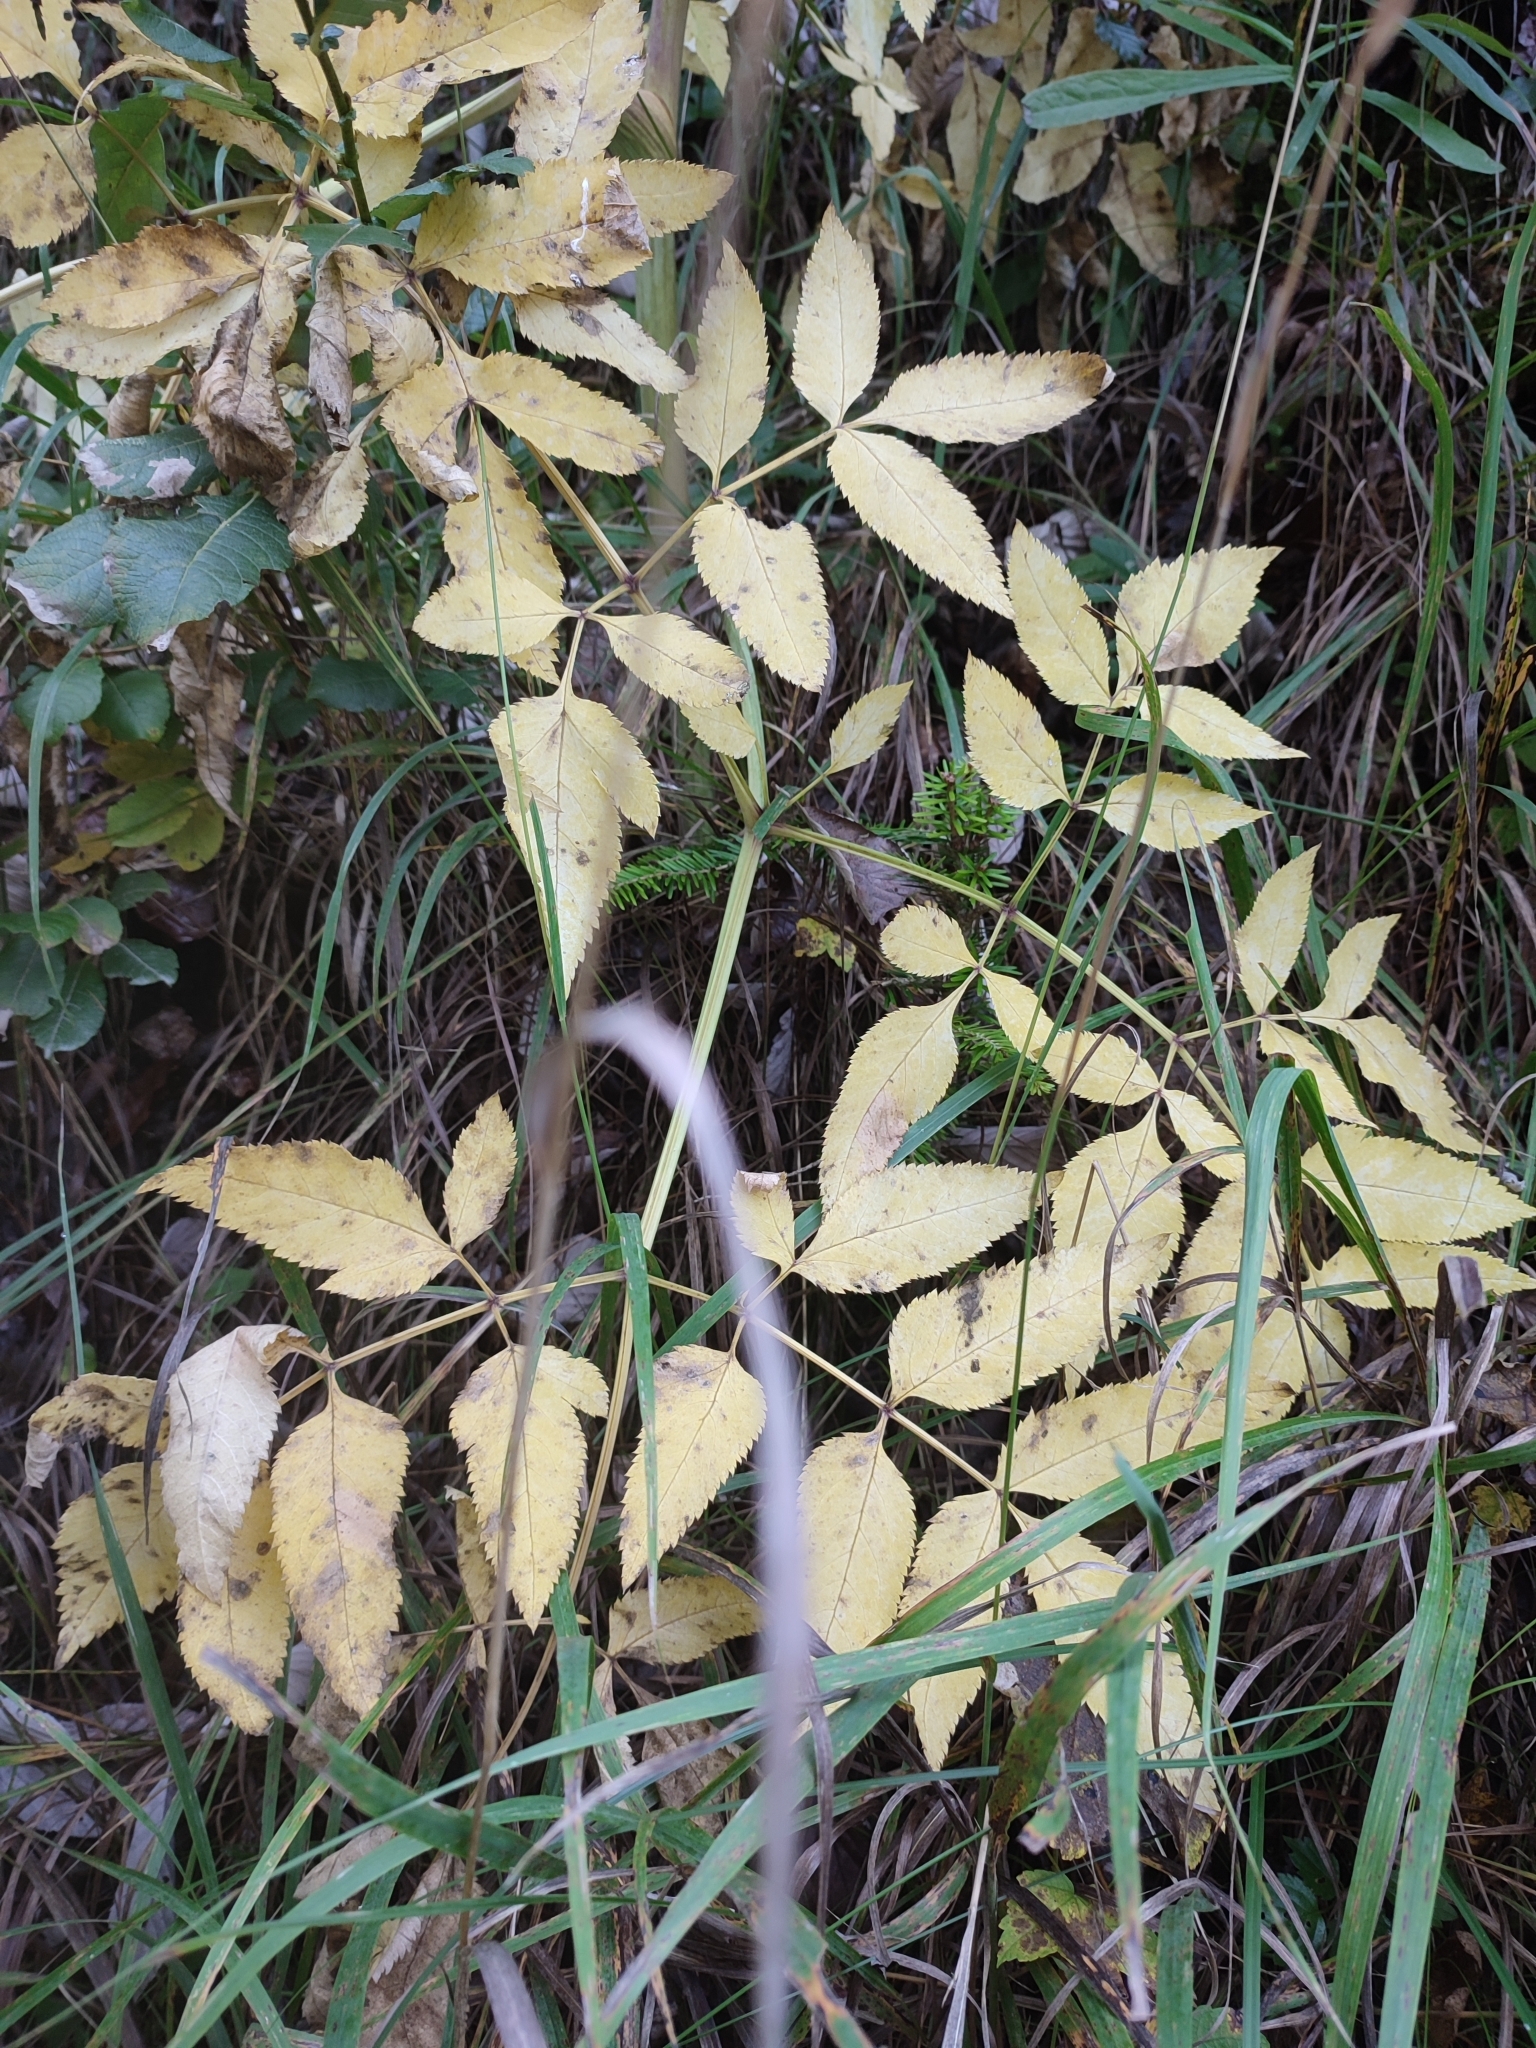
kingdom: Plantae
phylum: Tracheophyta
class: Magnoliopsida
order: Apiales
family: Apiaceae
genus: Angelica
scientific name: Angelica sylvestris
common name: Wild angelica
